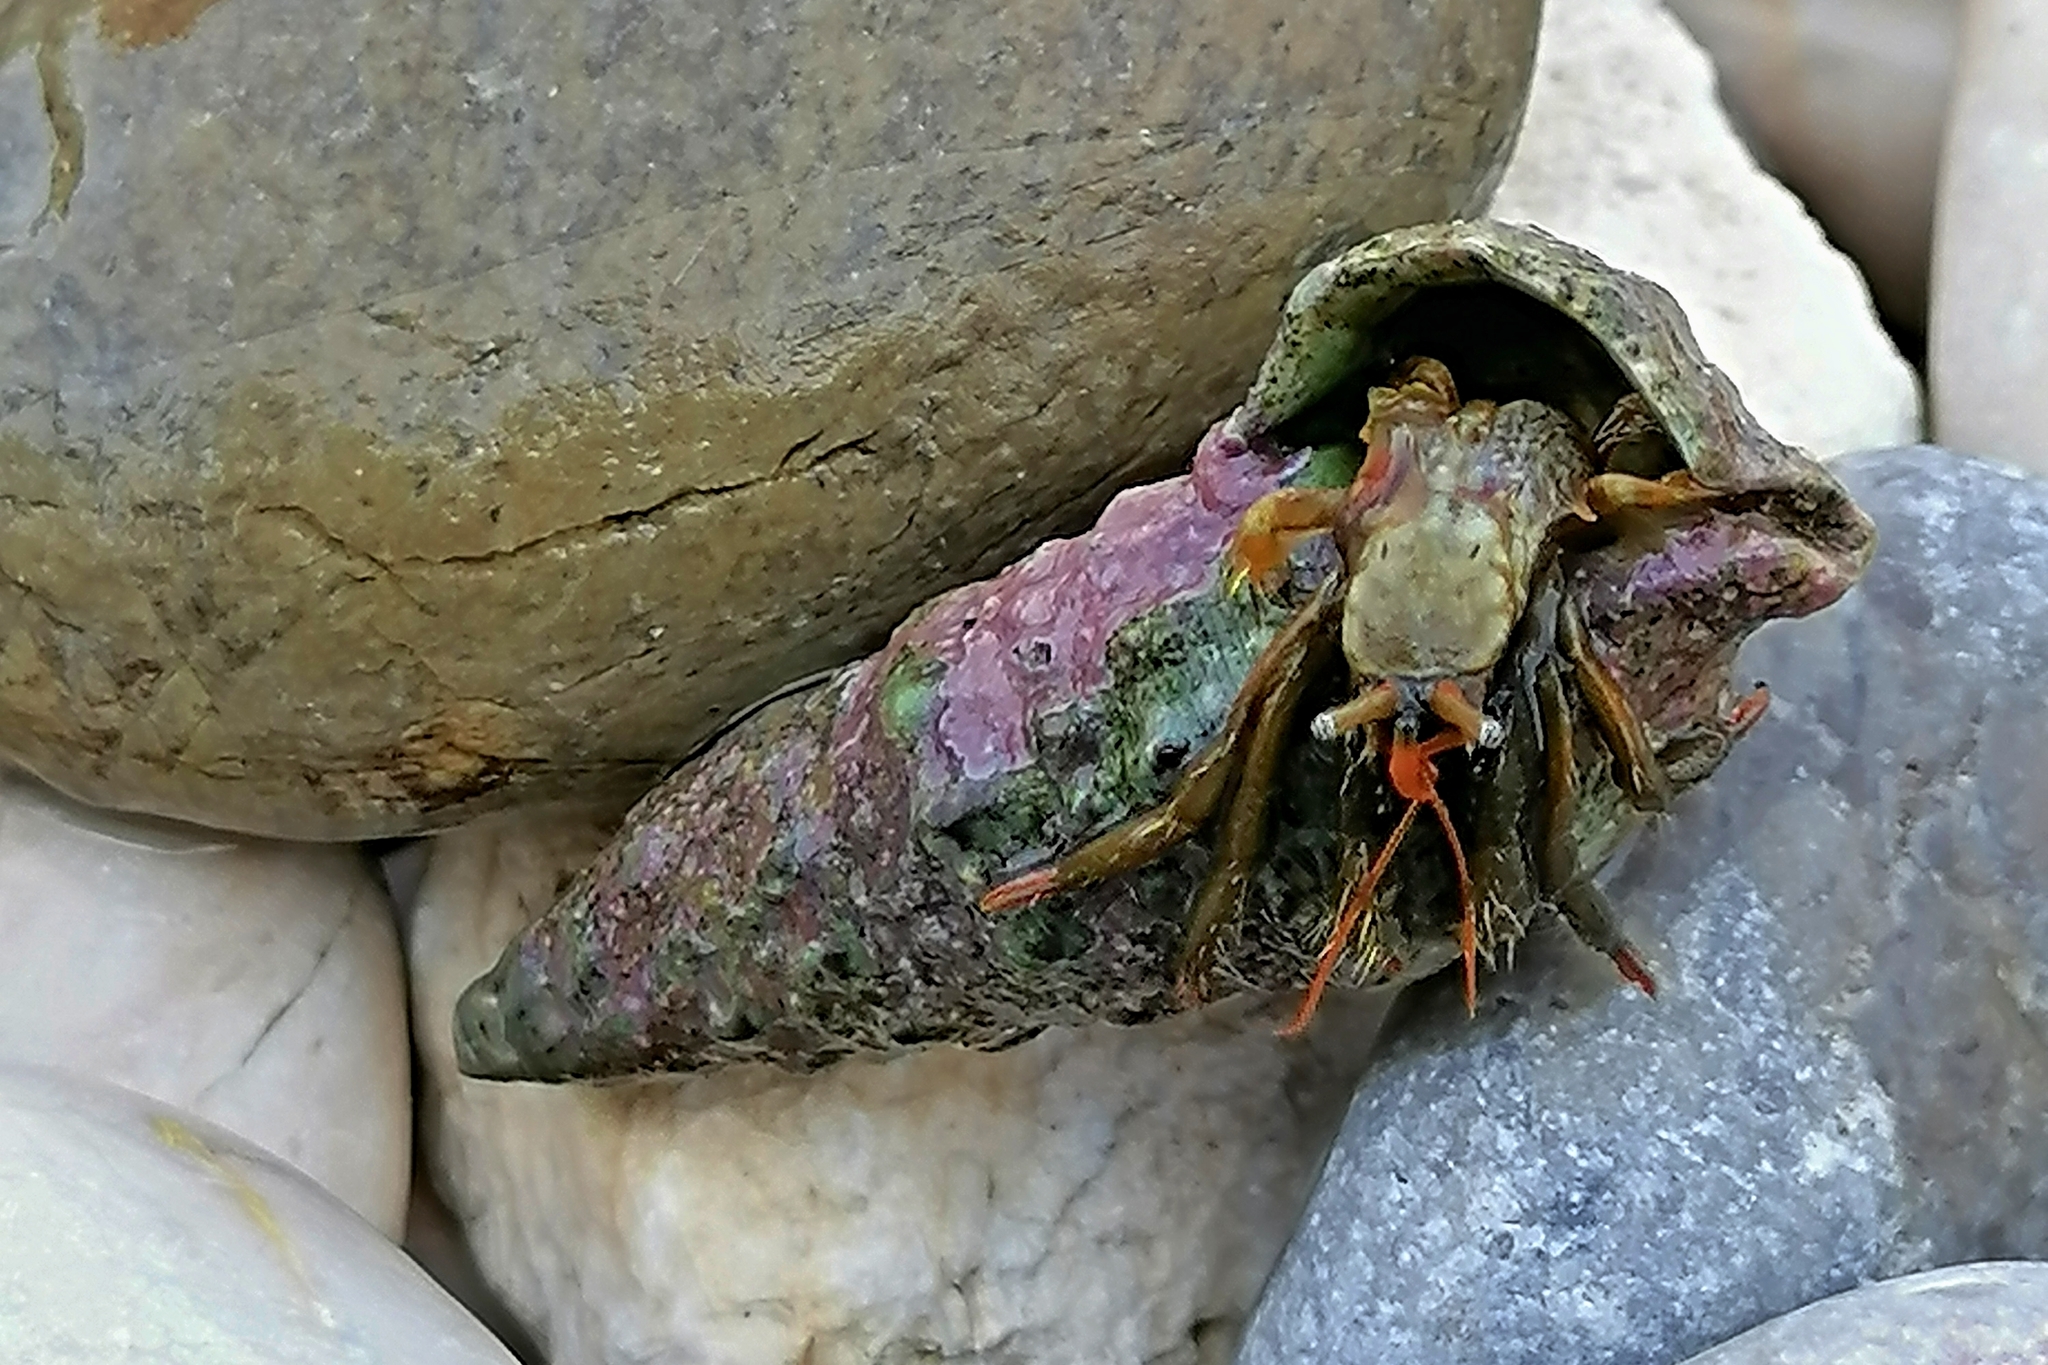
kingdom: Animalia
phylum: Arthropoda
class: Malacostraca
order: Decapoda
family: Diogenidae
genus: Clibanarius
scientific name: Clibanarius erythropus
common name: Hermit crab
